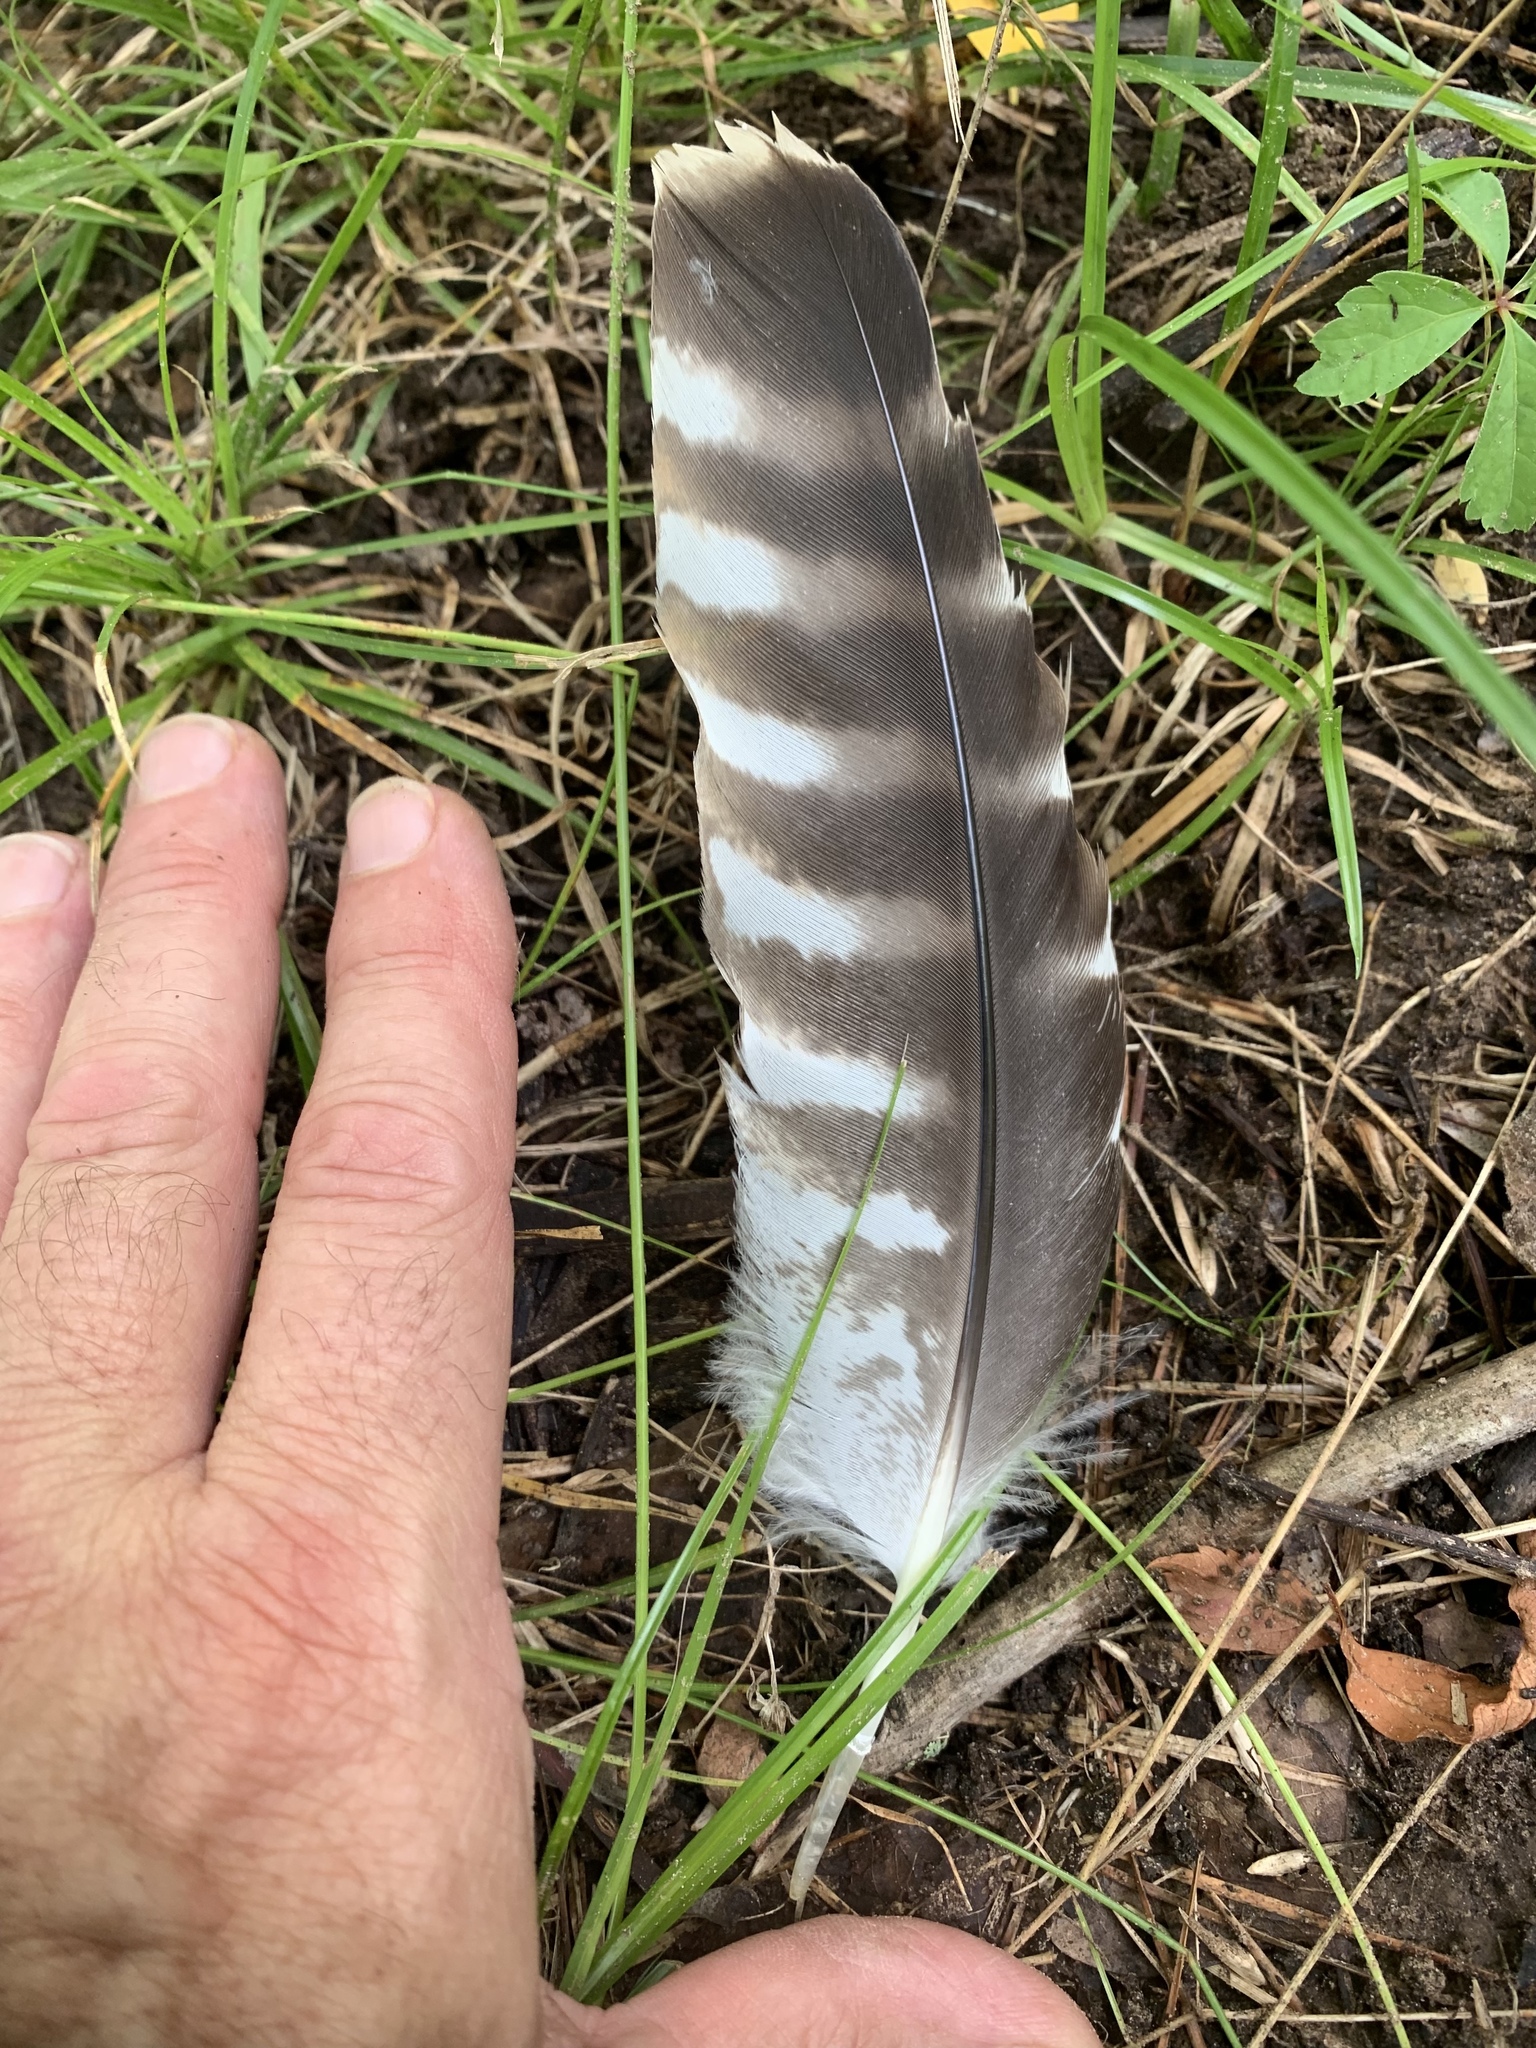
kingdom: Animalia
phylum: Chordata
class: Aves
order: Accipitriformes
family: Accipitridae
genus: Buteo
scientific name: Buteo lineatus
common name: Red-shouldered hawk
